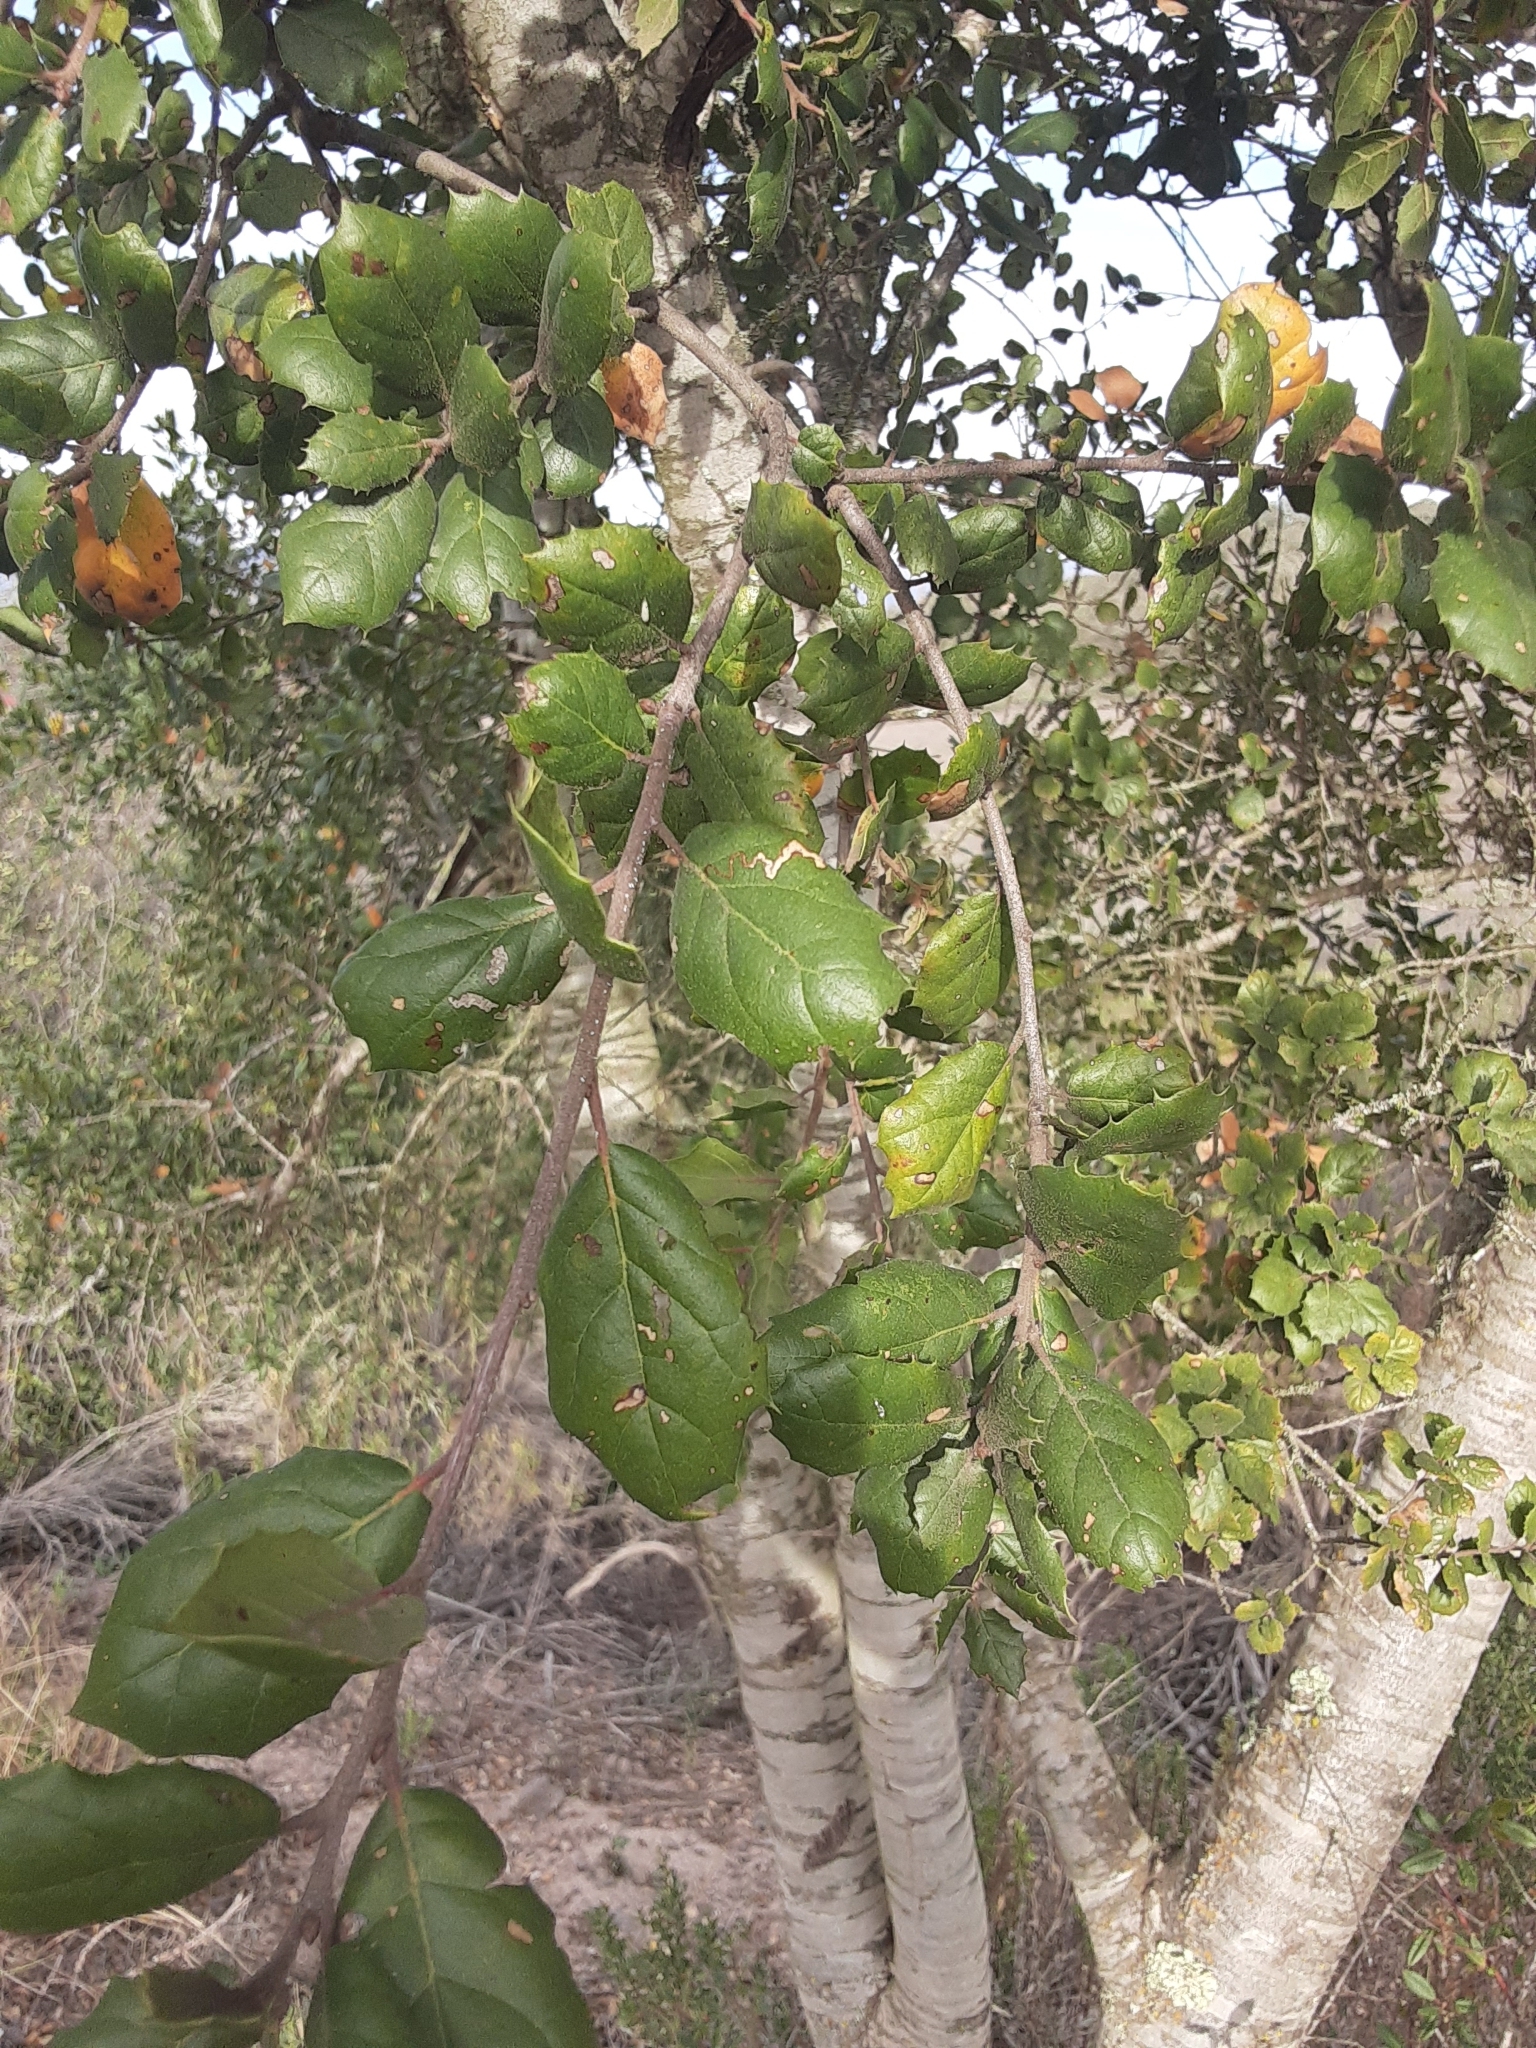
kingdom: Plantae
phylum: Tracheophyta
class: Magnoliopsida
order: Fagales
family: Fagaceae
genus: Quercus
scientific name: Quercus agrifolia
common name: California live oak
